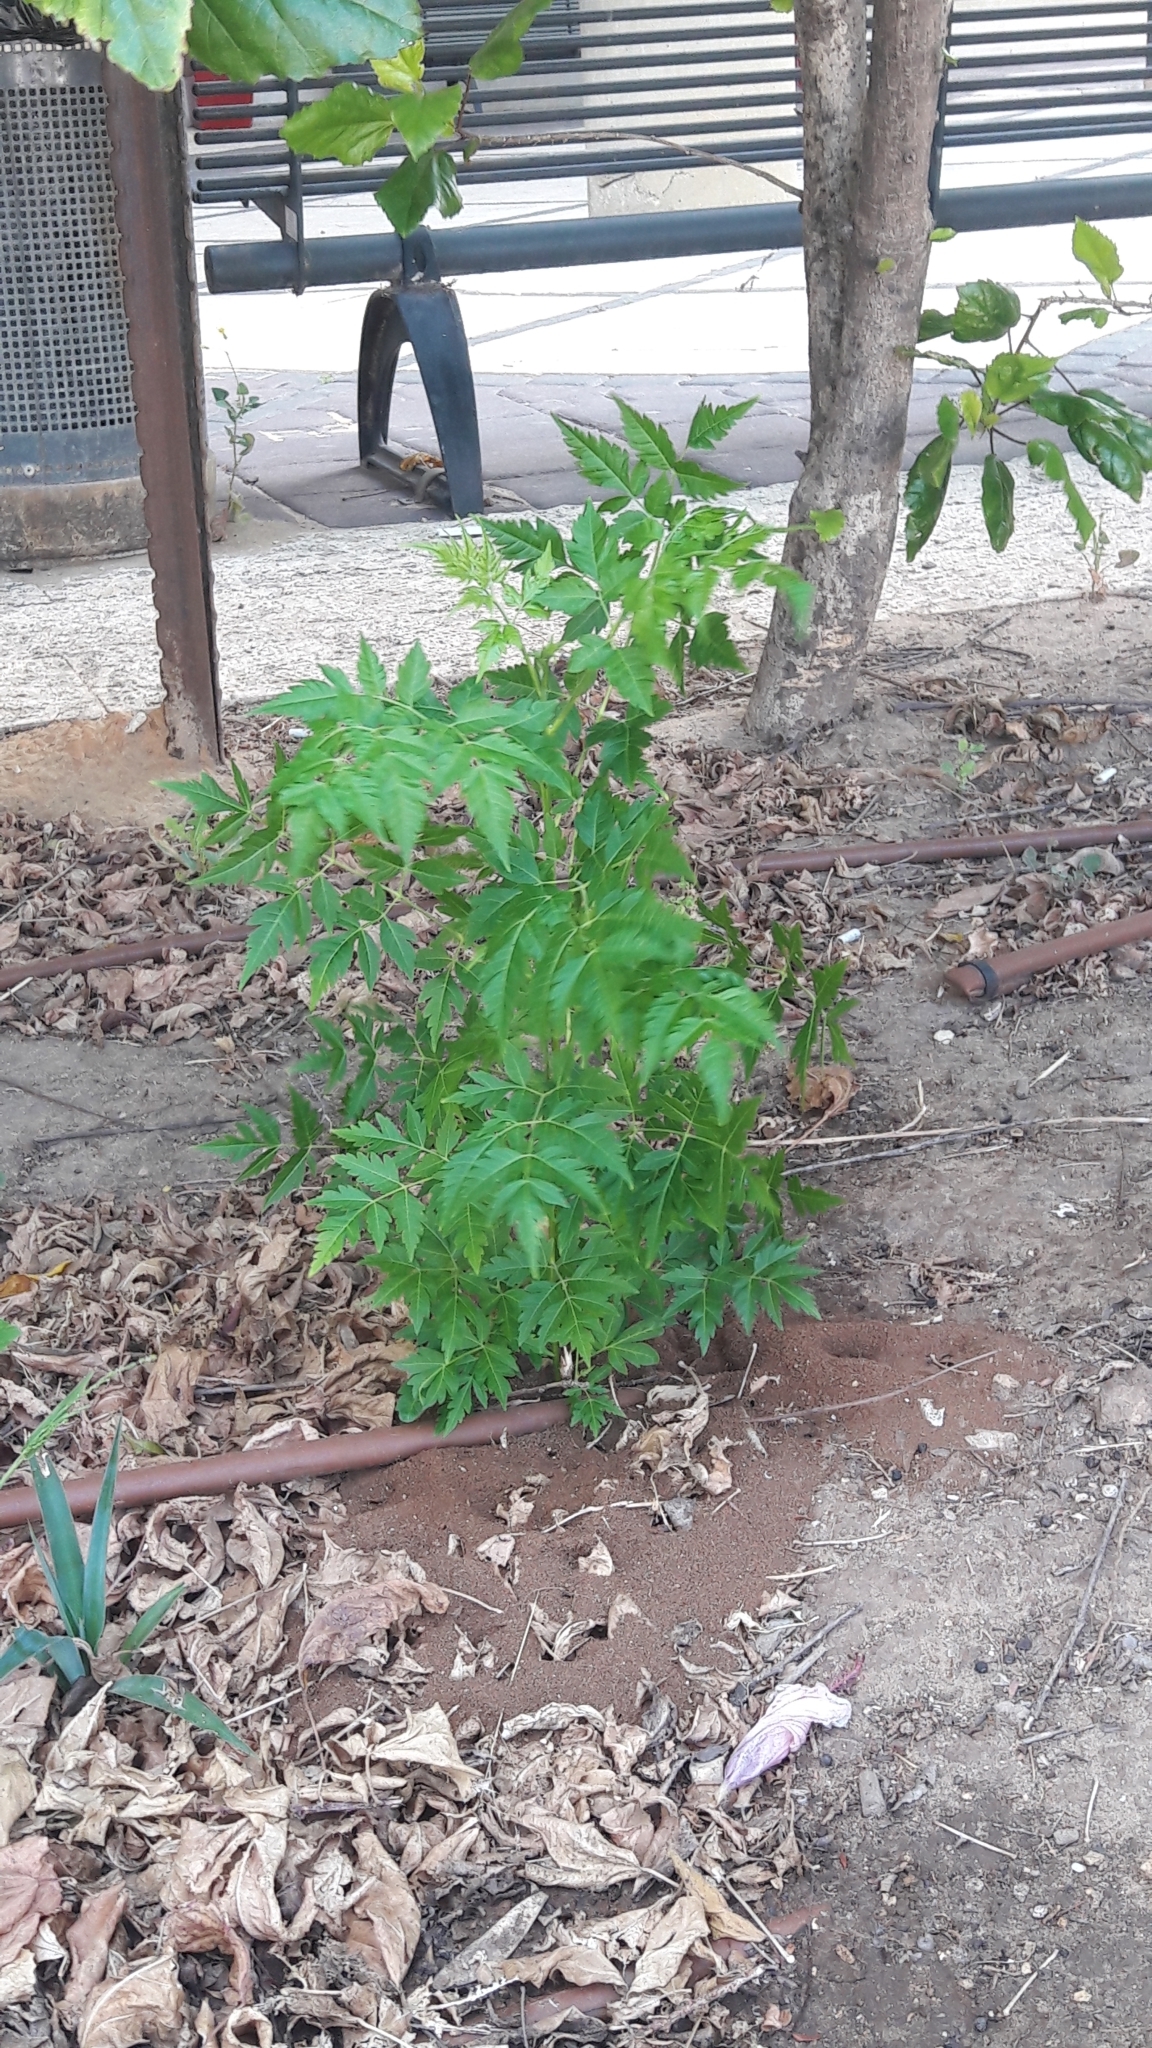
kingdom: Plantae
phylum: Tracheophyta
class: Magnoliopsida
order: Sapindales
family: Meliaceae
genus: Melia
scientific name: Melia azedarach
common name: Chinaberrytree
